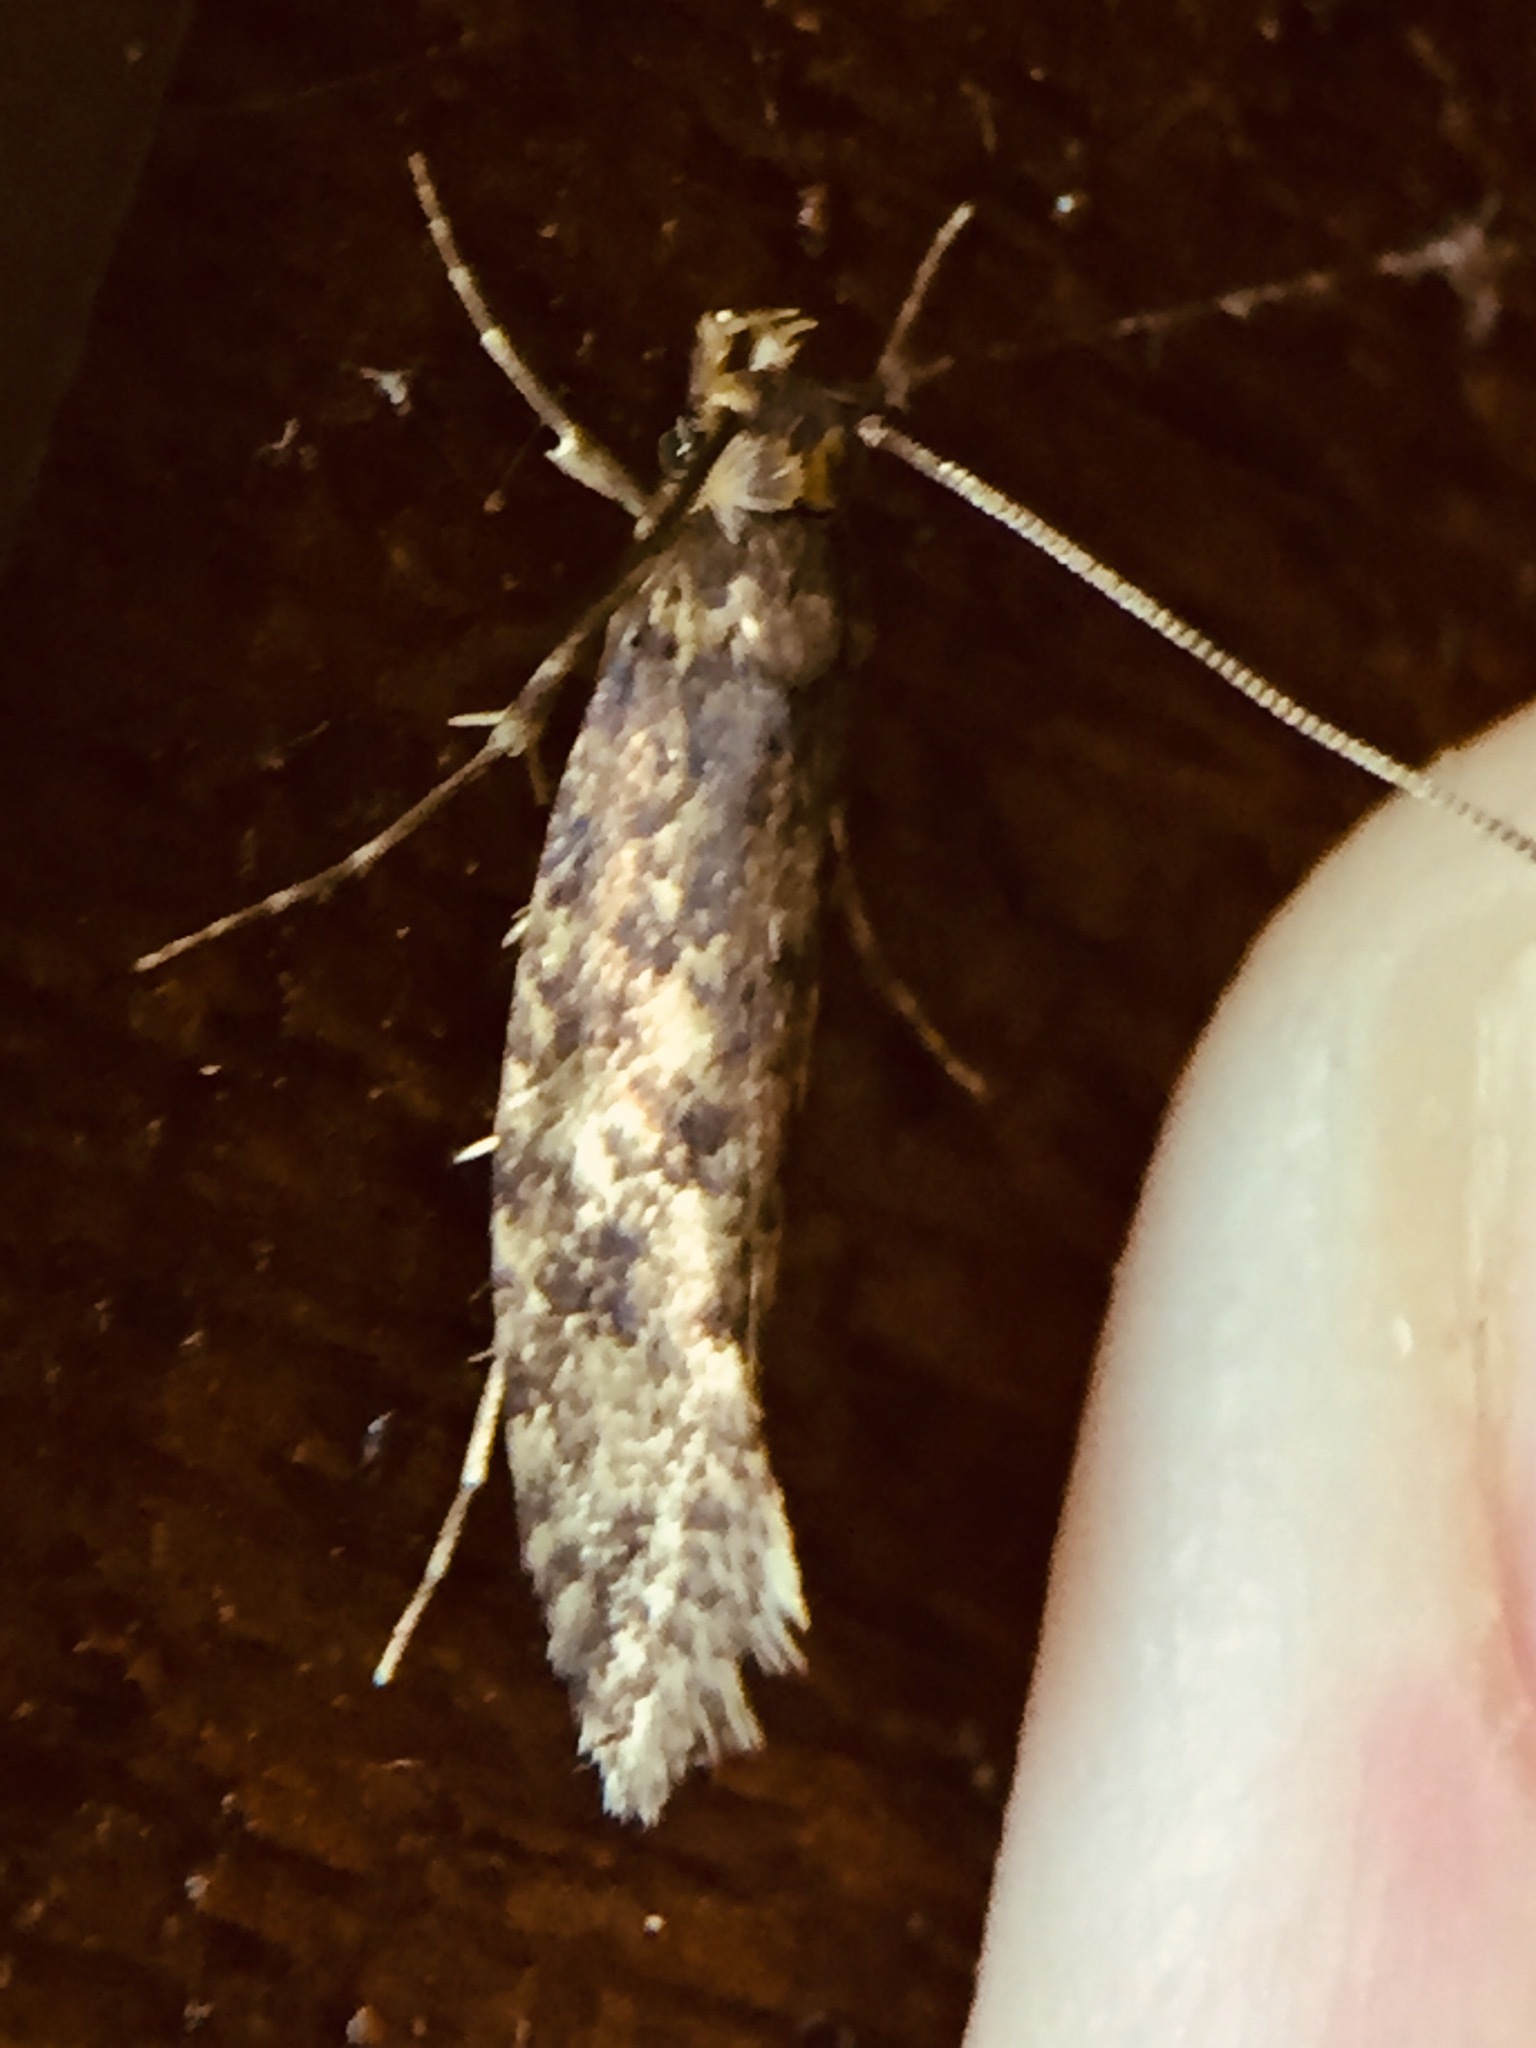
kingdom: Animalia
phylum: Arthropoda
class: Insecta
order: Lepidoptera
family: Tineidae
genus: Lindera
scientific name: Lindera tessellatella
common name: Moth
